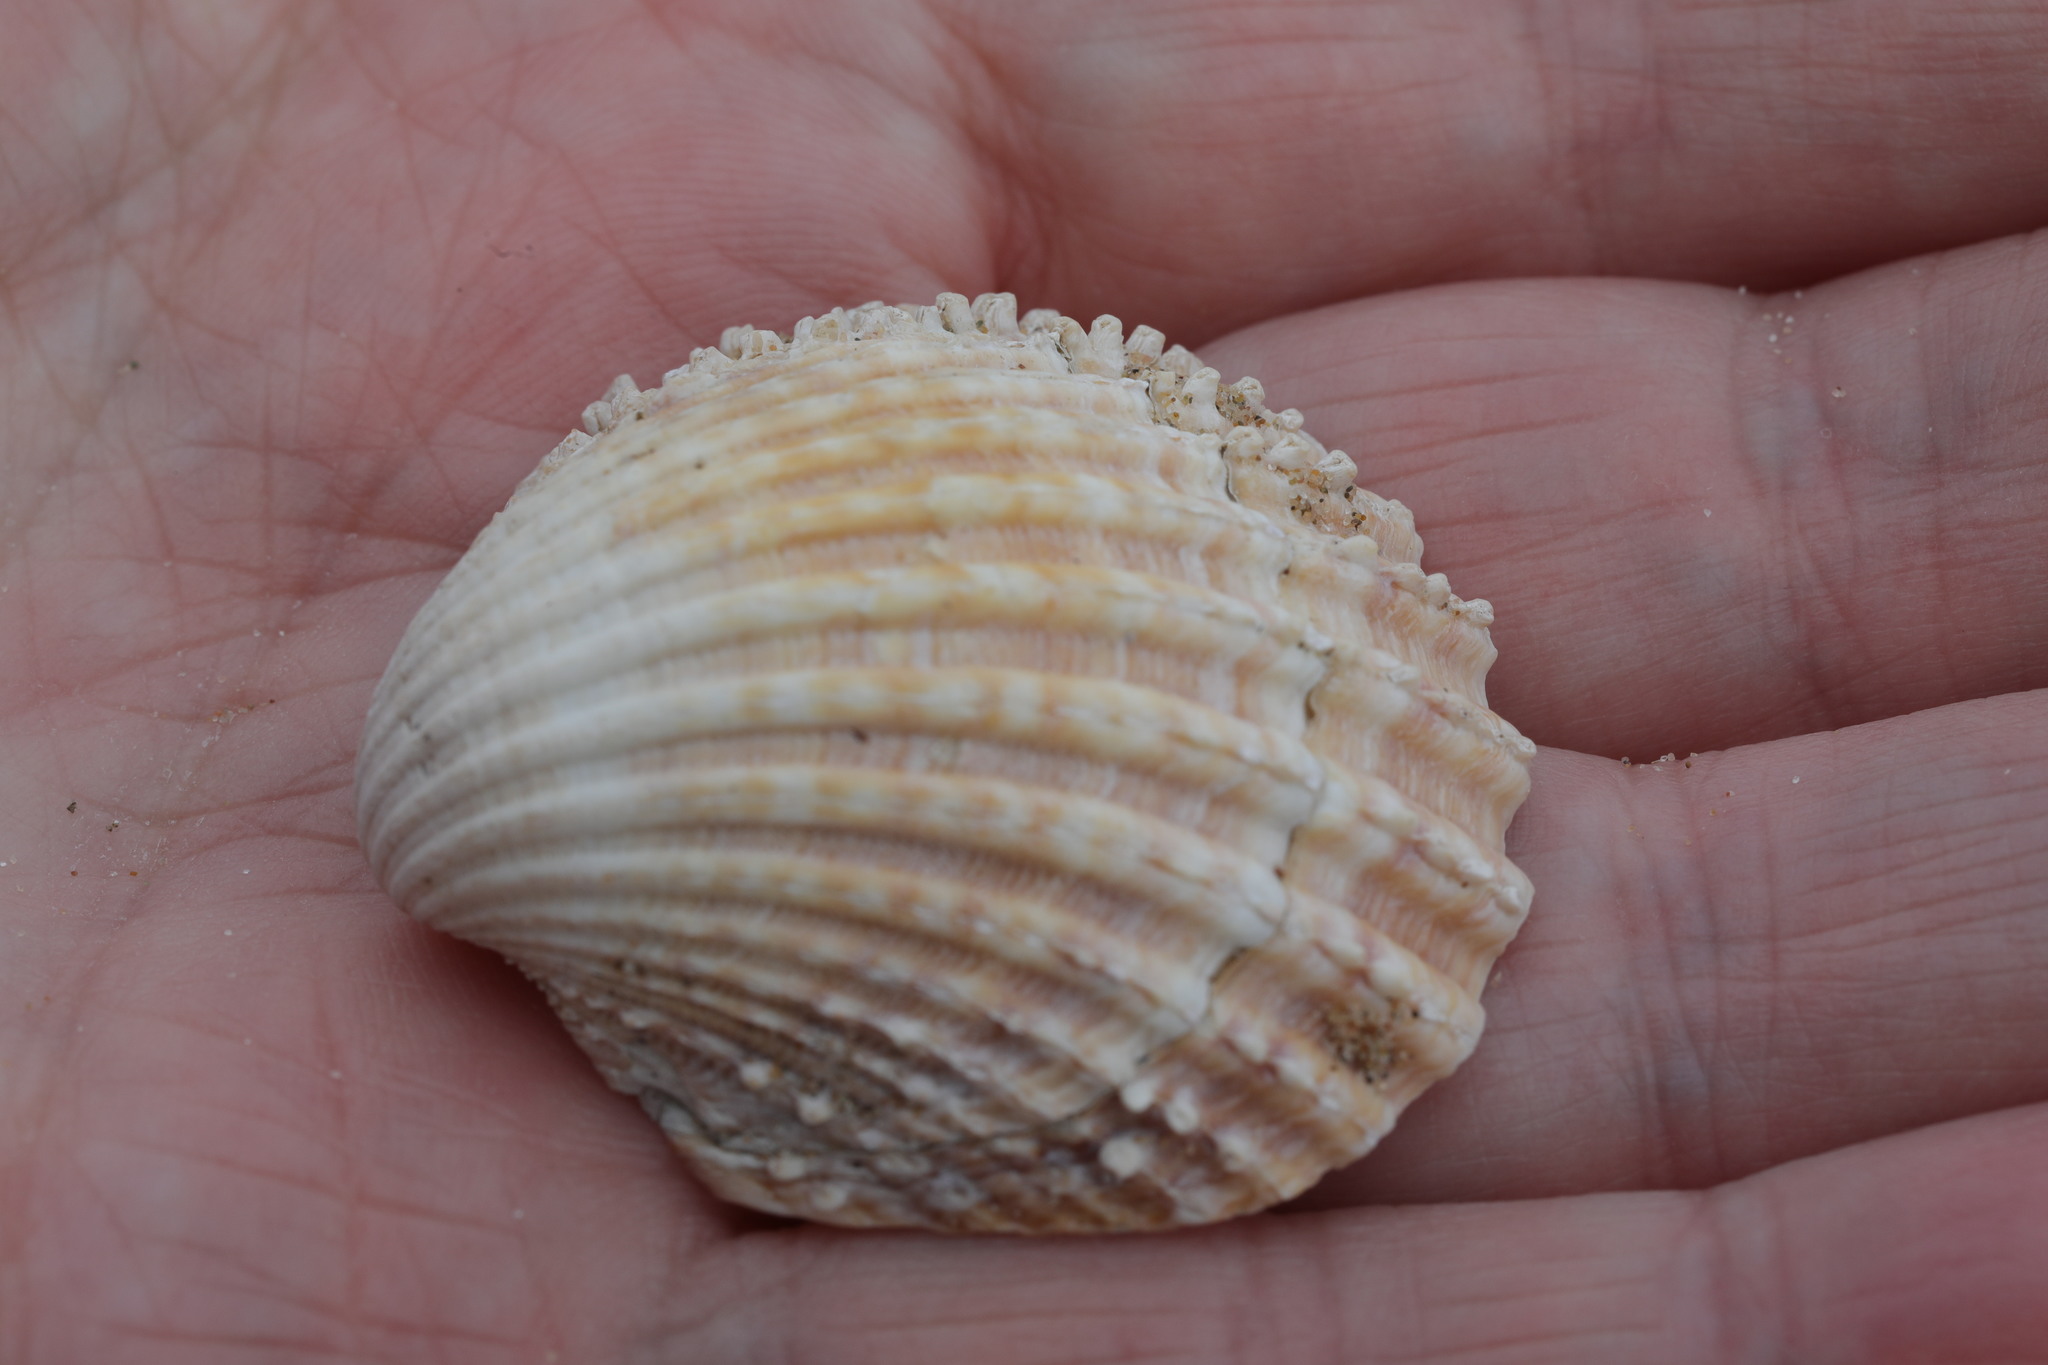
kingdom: Animalia
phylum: Mollusca
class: Bivalvia
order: Cardiida
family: Cardiidae
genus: Acanthocardia
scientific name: Acanthocardia echinata
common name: Prickly cockle
